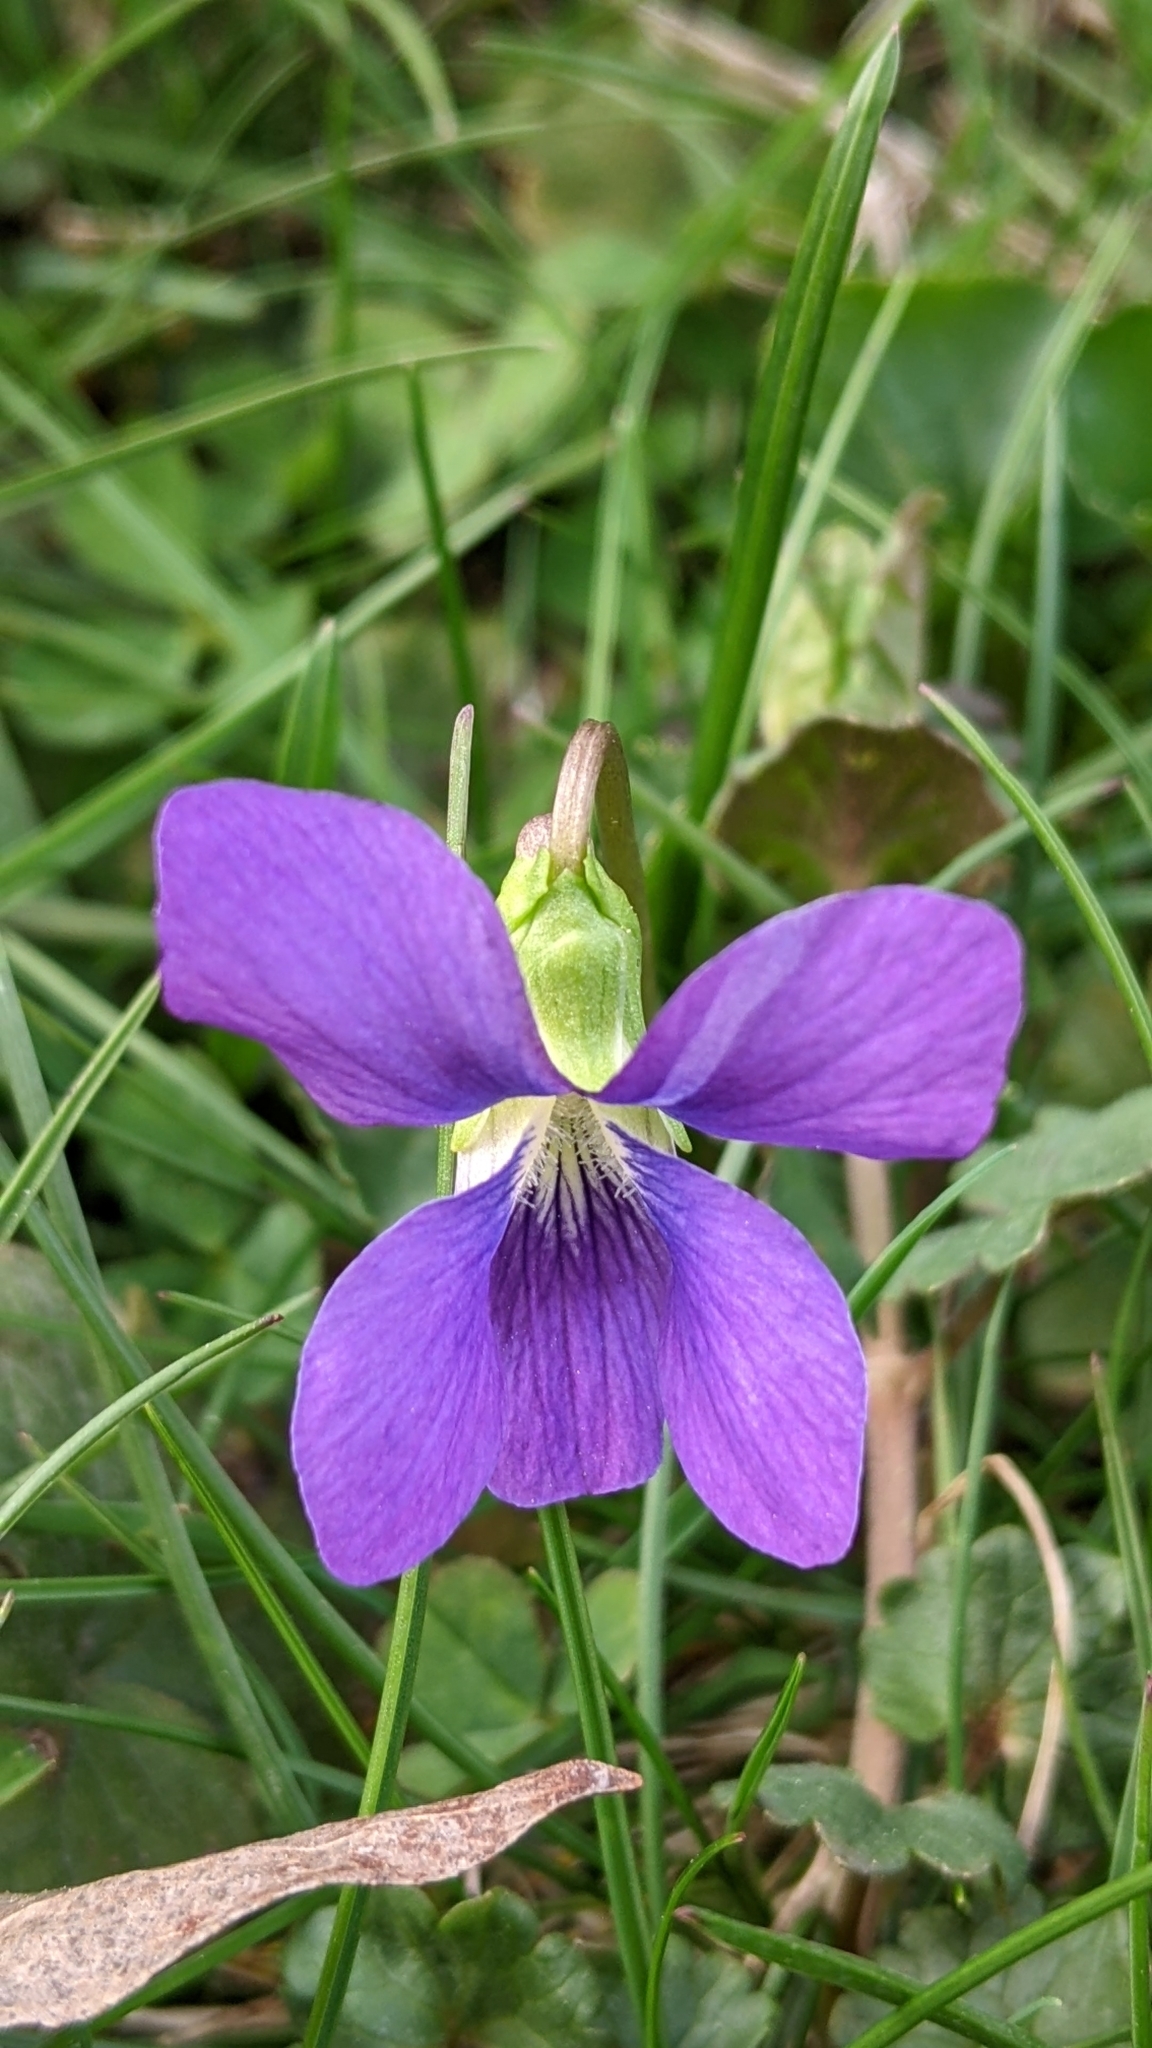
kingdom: Plantae
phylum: Tracheophyta
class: Magnoliopsida
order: Malpighiales
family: Violaceae
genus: Viola
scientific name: Viola sororia
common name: Dooryard violet
